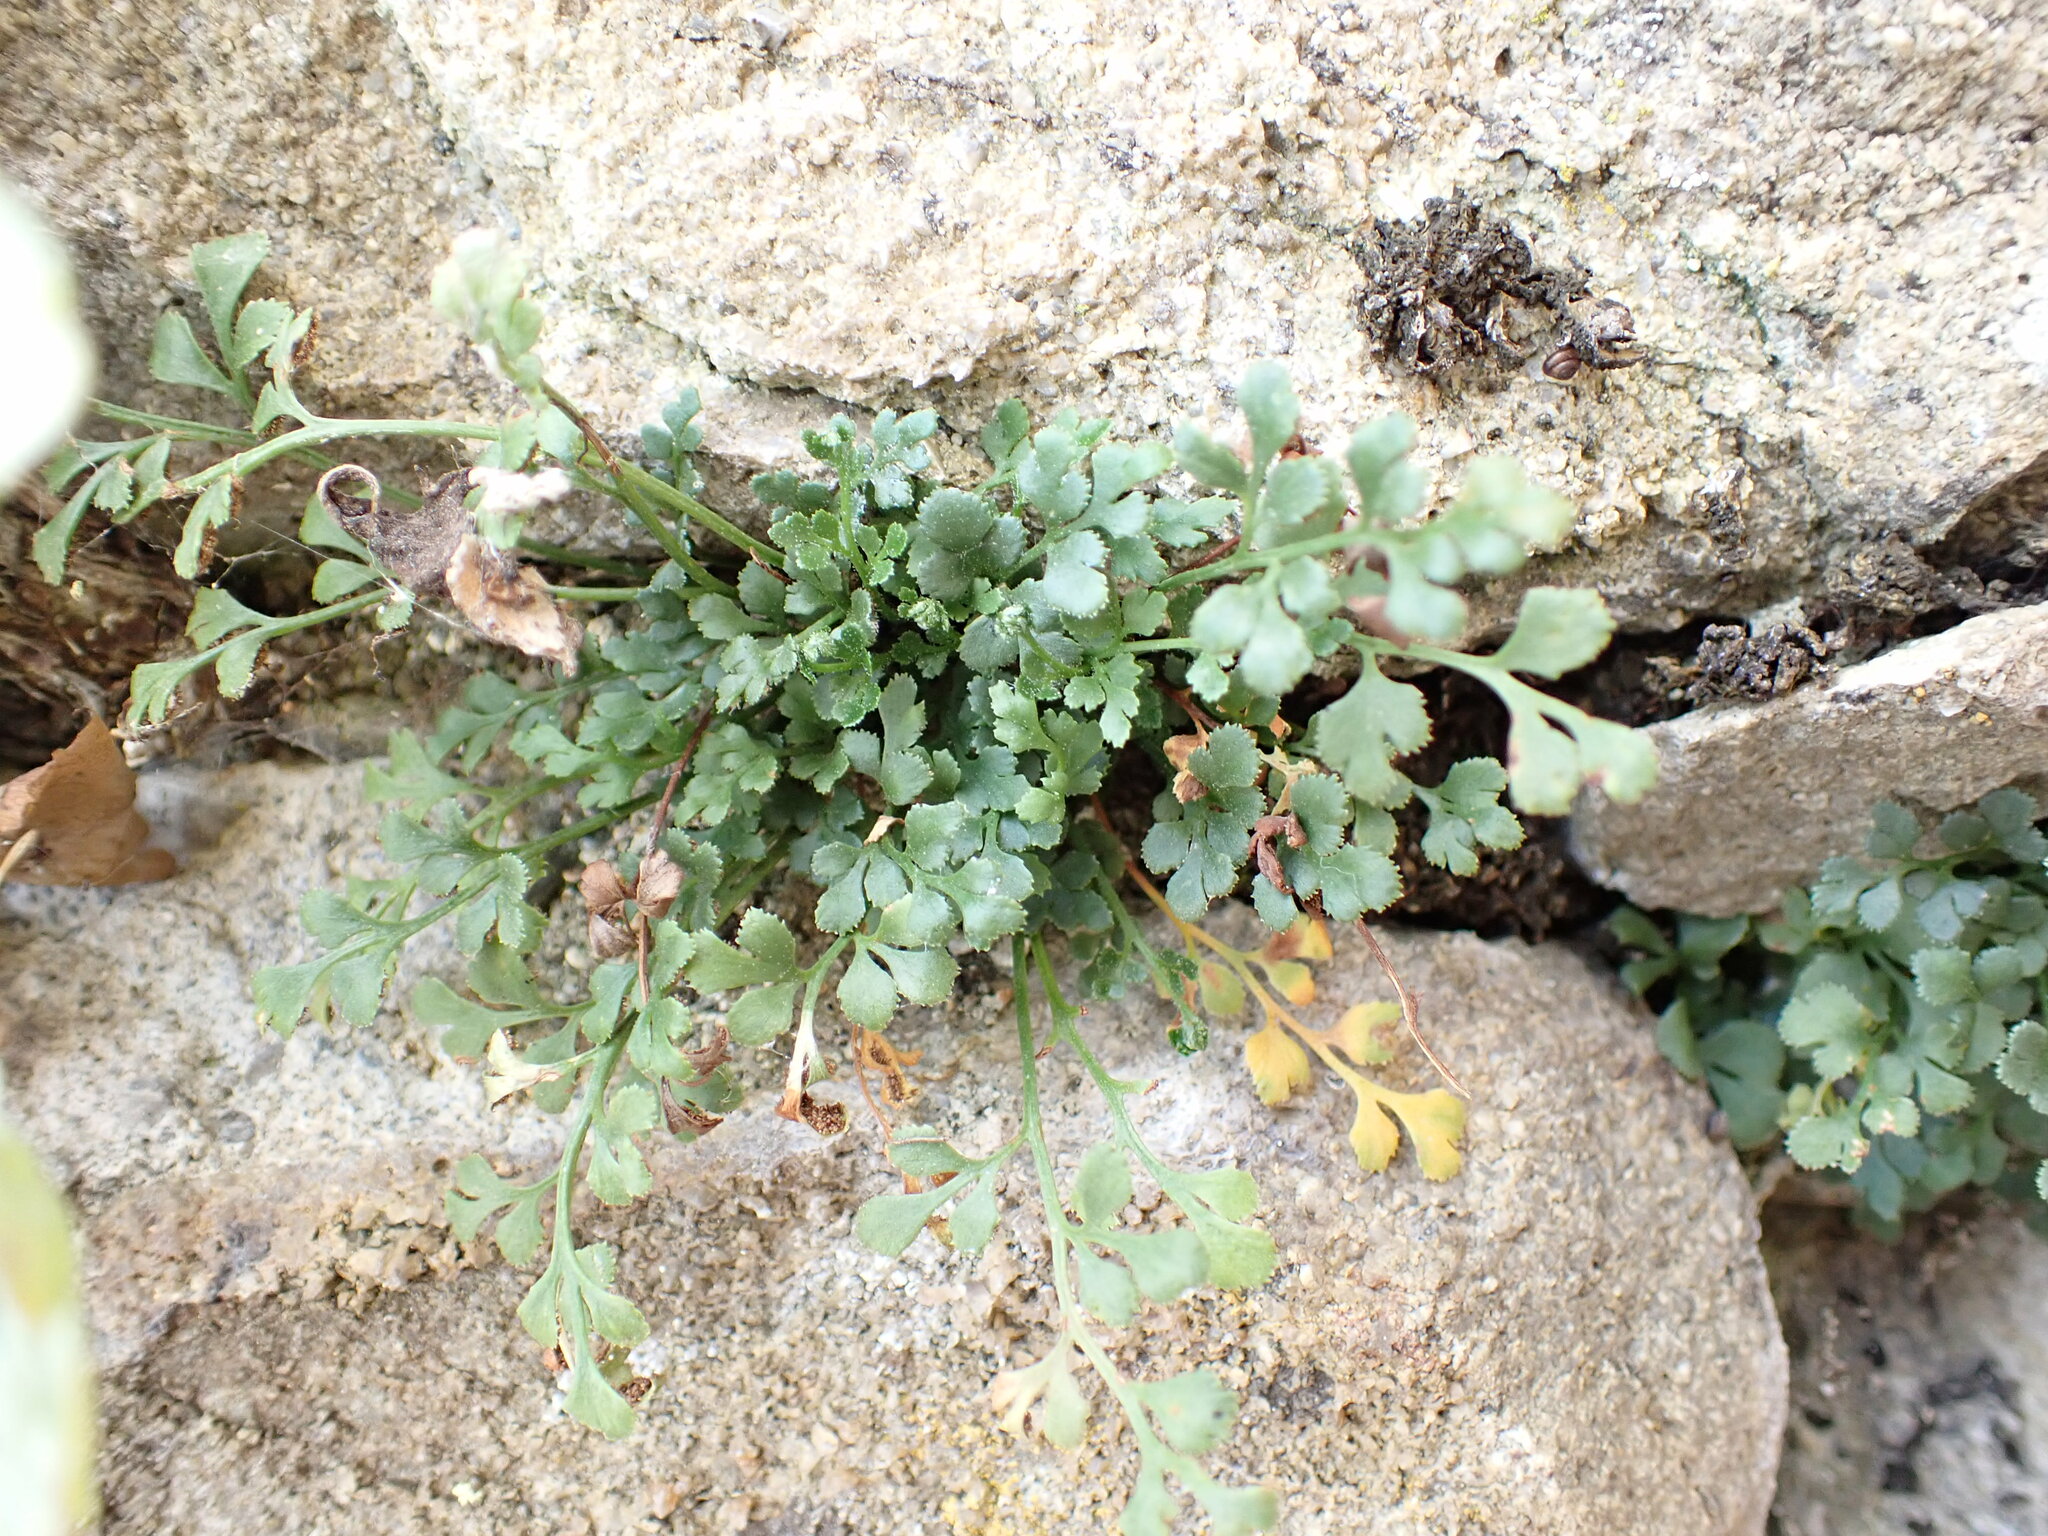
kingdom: Plantae
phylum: Tracheophyta
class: Polypodiopsida
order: Polypodiales
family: Aspleniaceae
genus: Asplenium
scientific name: Asplenium ruta-muraria
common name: Wall-rue
